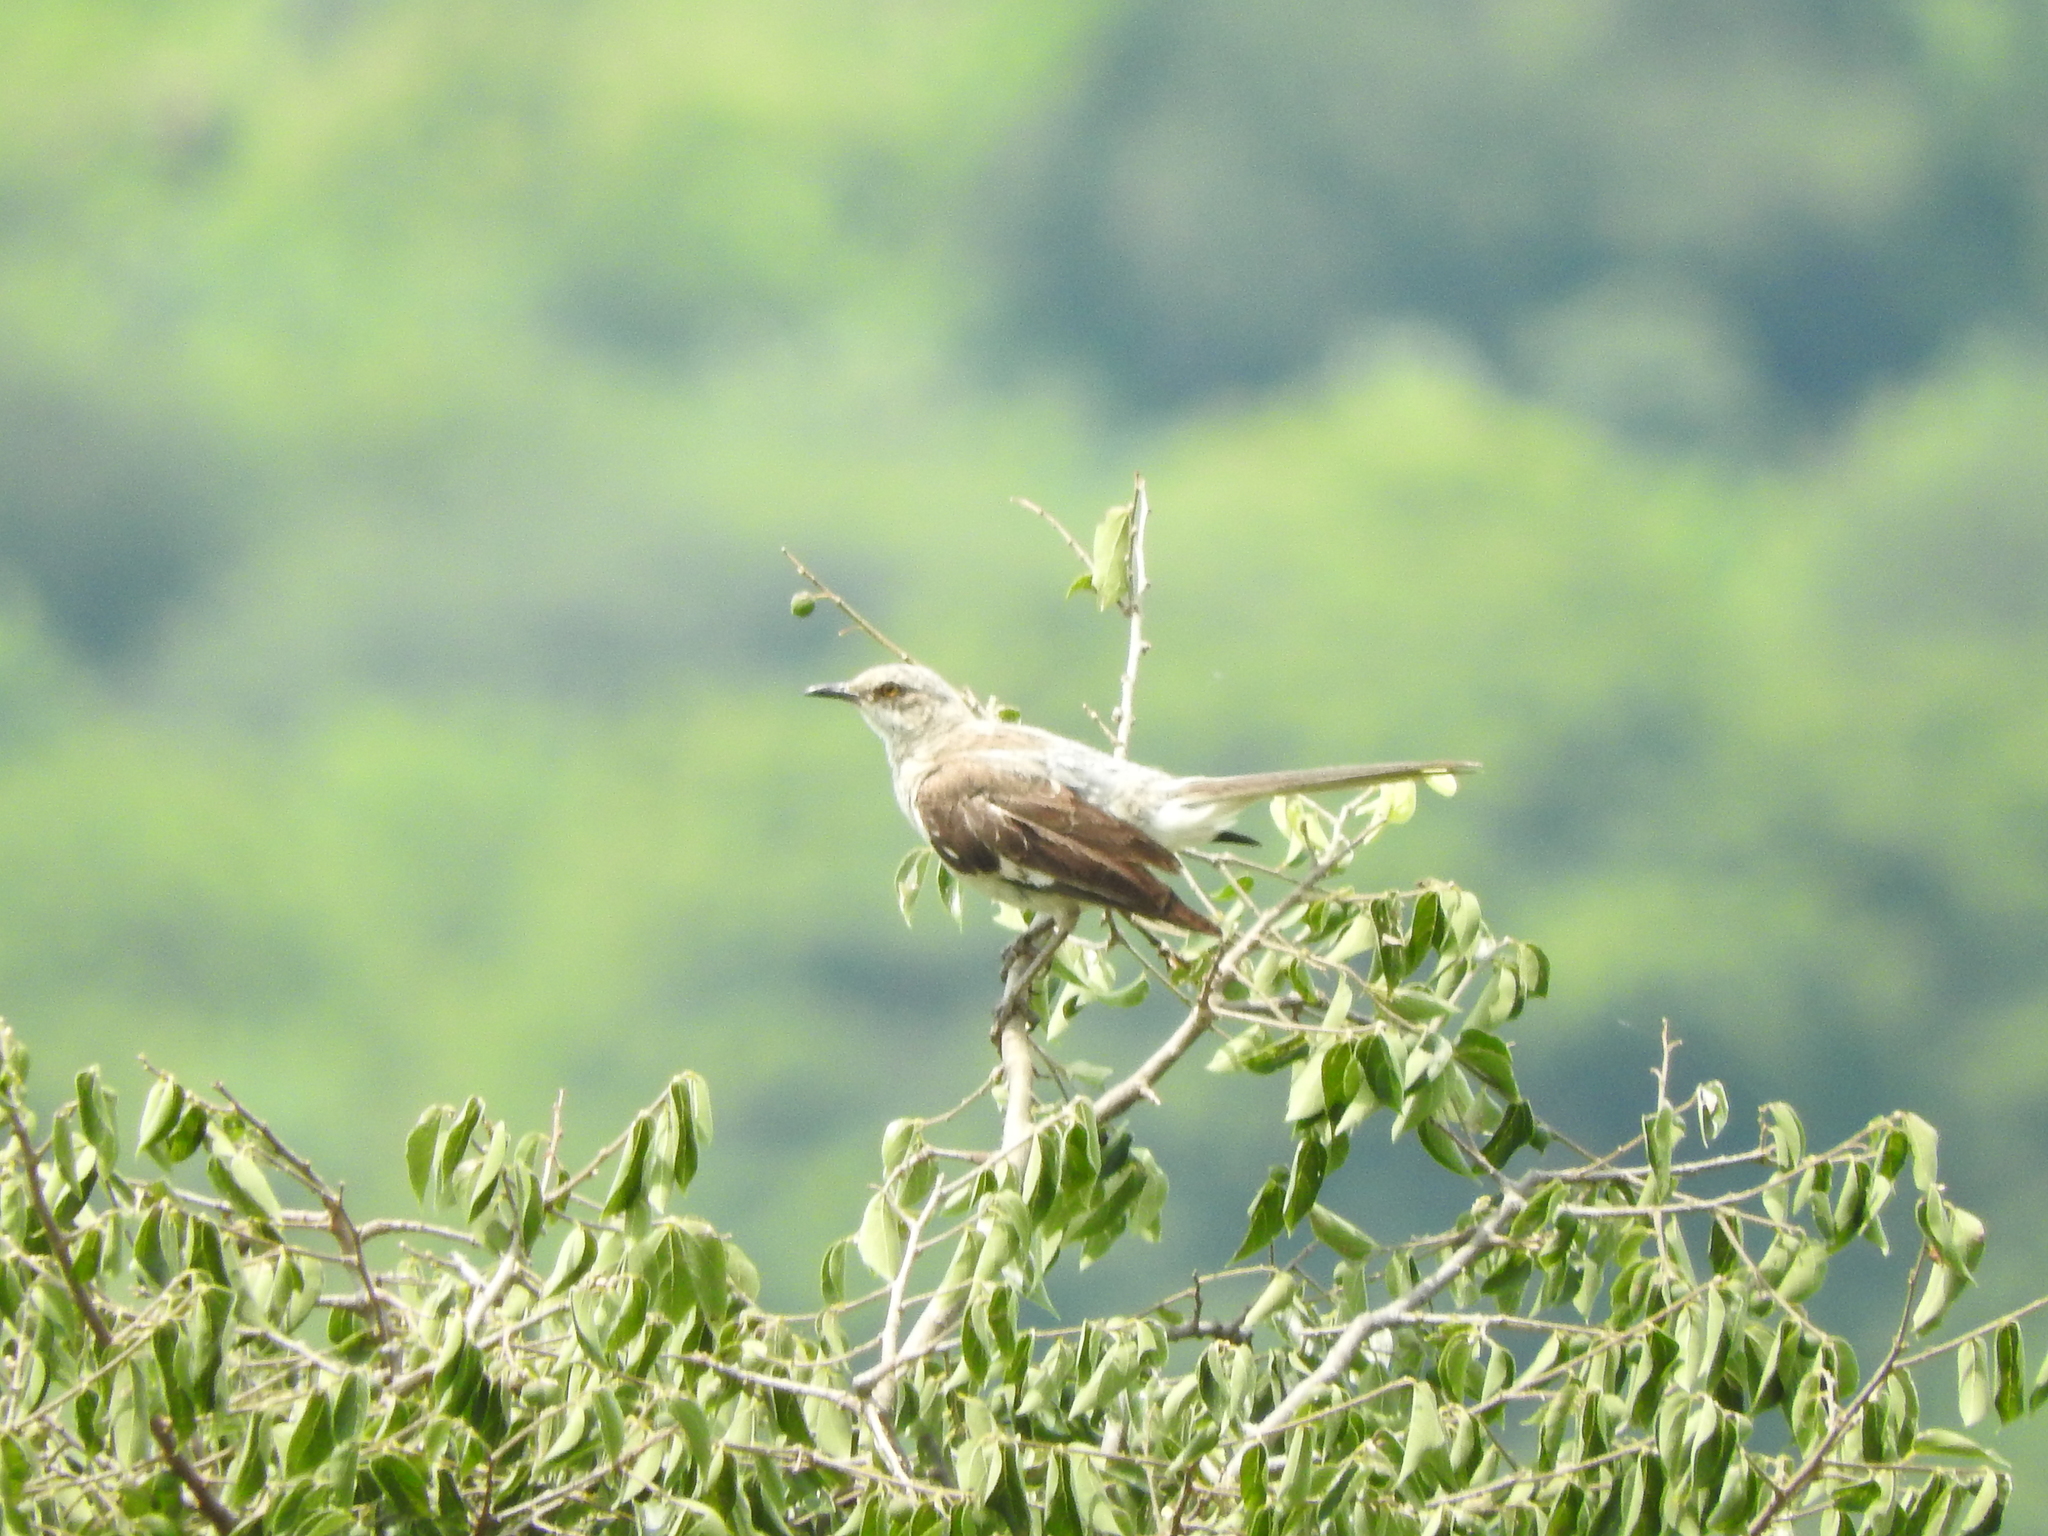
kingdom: Animalia
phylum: Chordata
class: Aves
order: Passeriformes
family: Mimidae
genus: Mimus
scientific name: Mimus polyglottos
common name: Northern mockingbird
